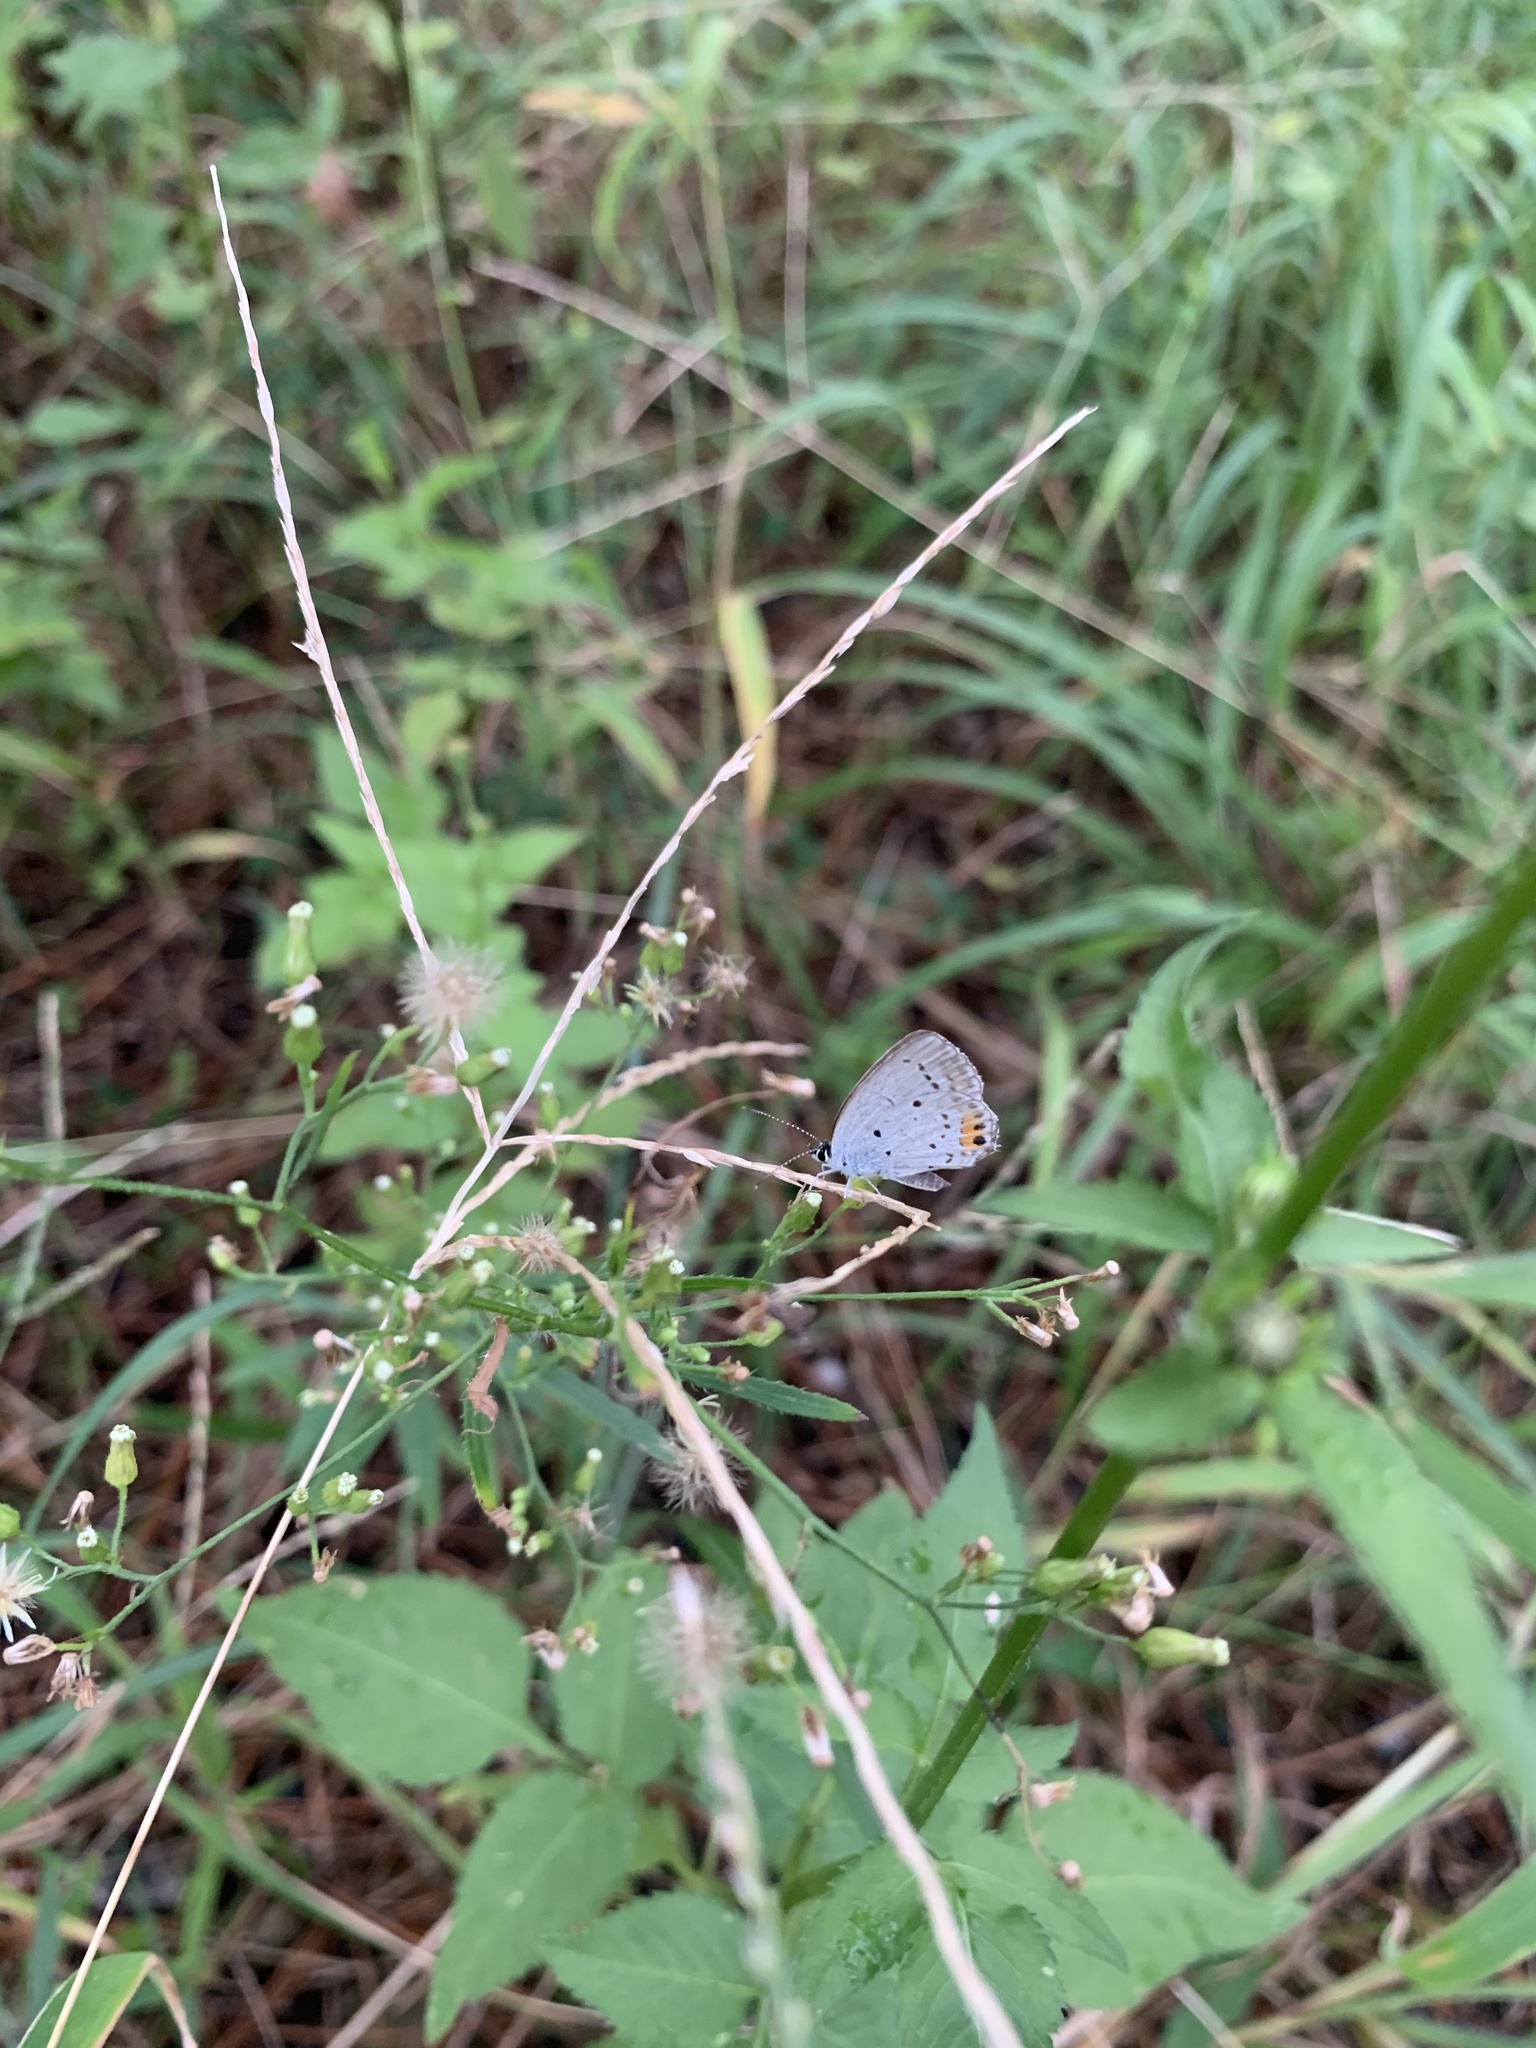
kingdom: Animalia
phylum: Arthropoda
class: Insecta
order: Lepidoptera
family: Lycaenidae
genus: Elkalyce
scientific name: Elkalyce argiades
